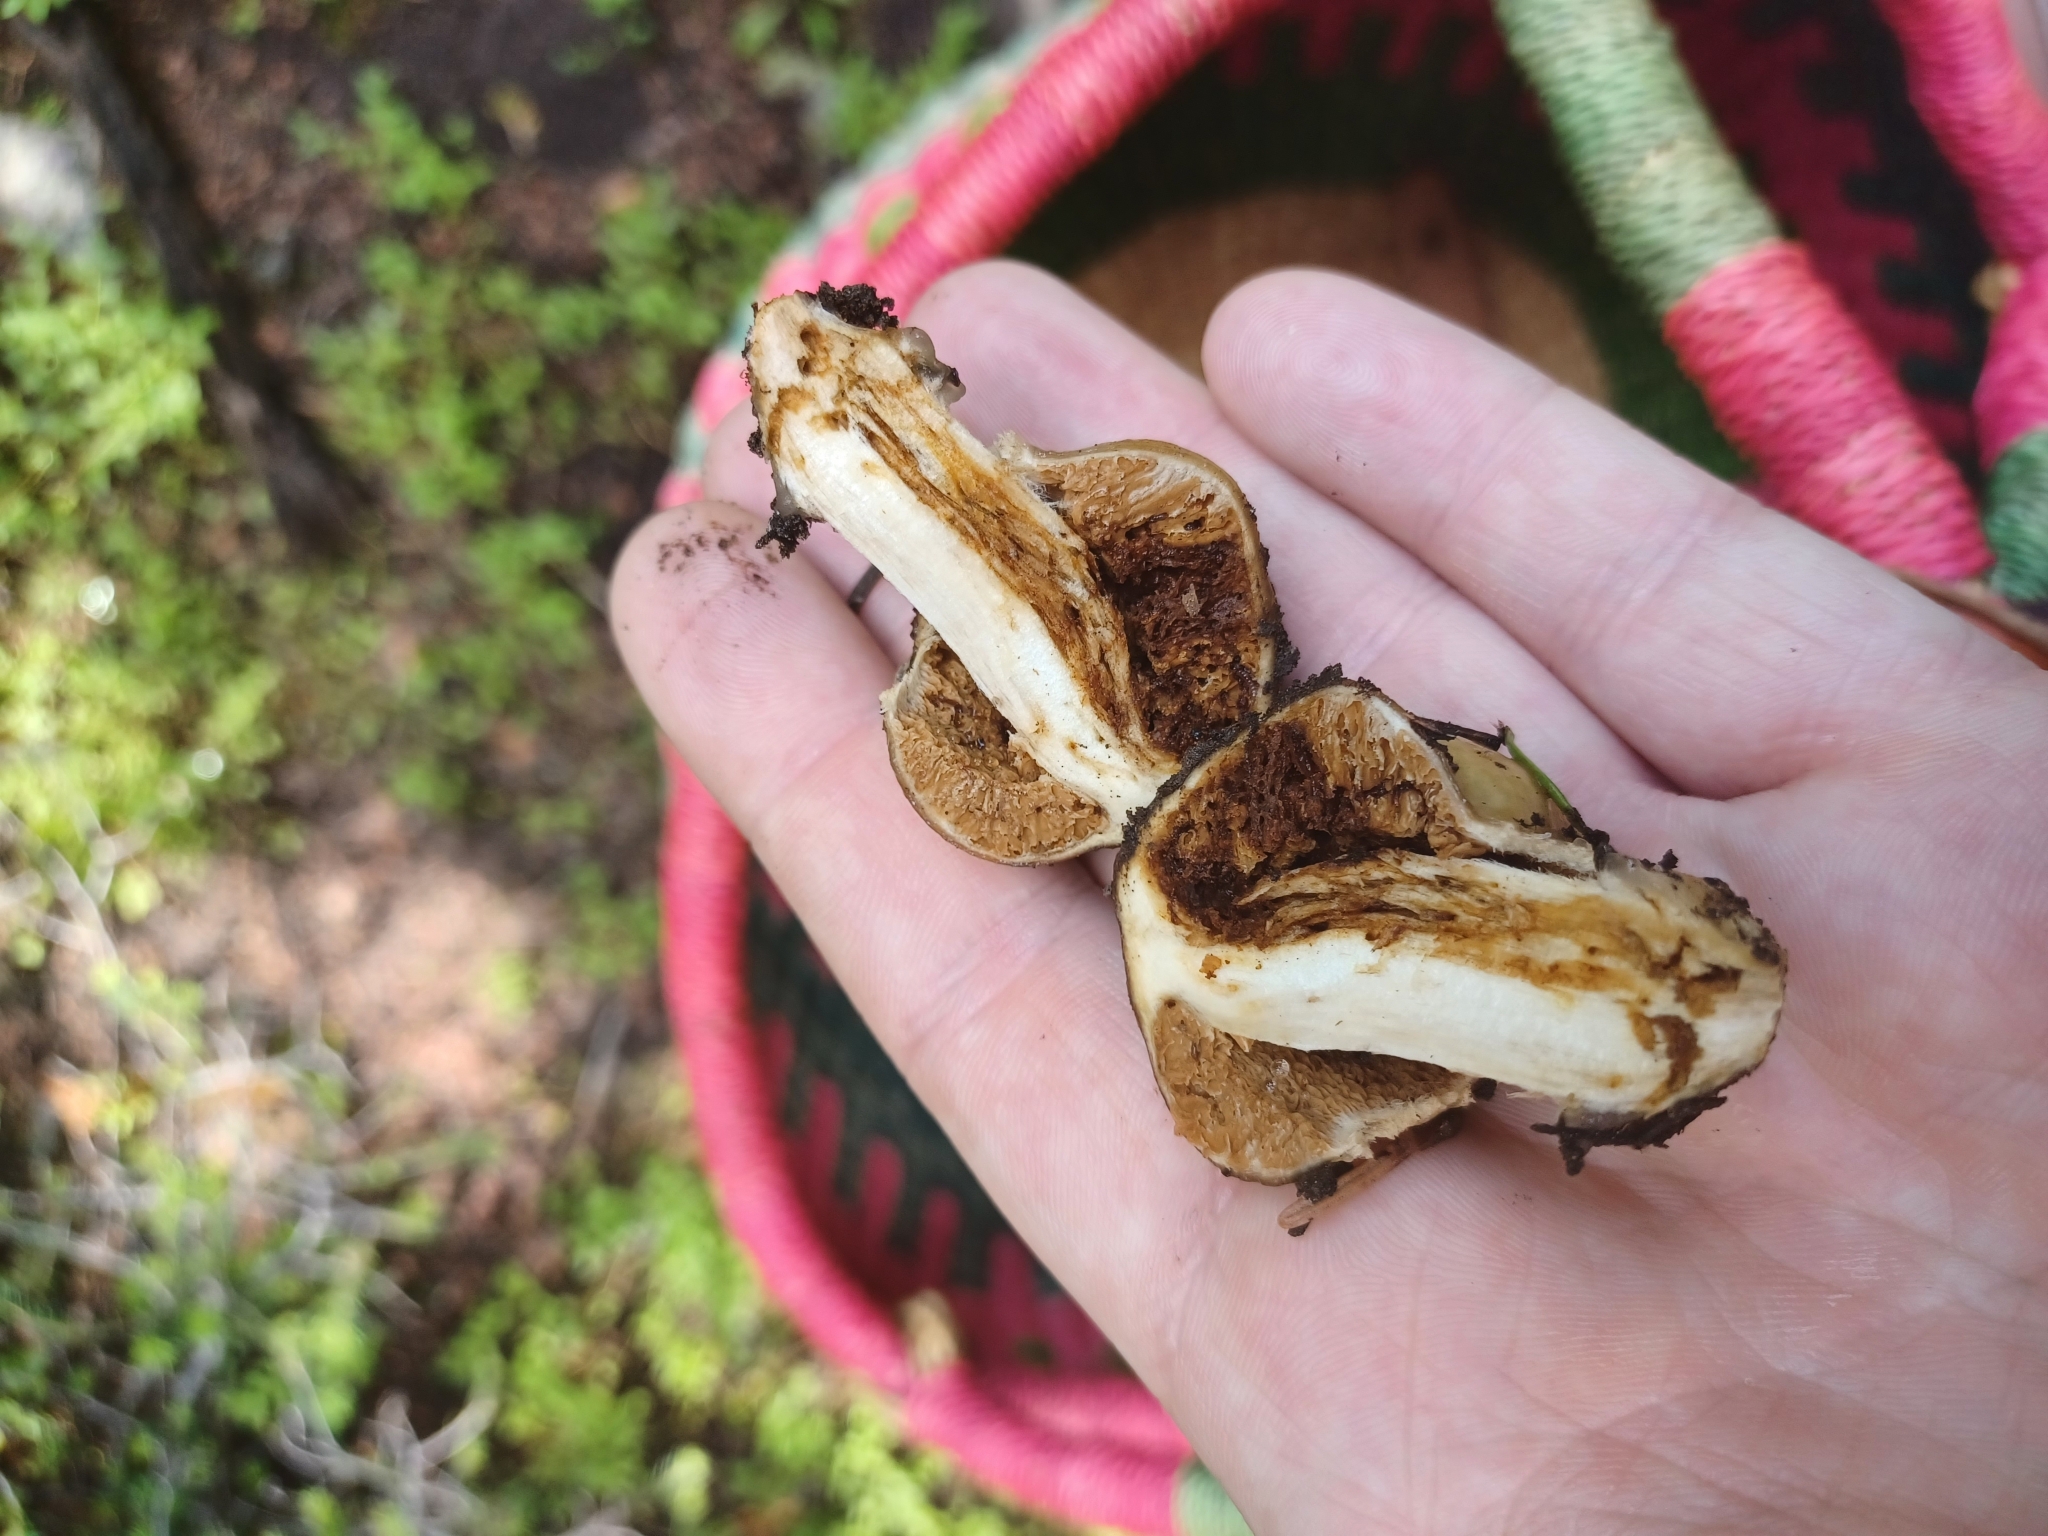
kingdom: Fungi
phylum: Basidiomycota
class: Agaricomycetes
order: Agaricales
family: Cortinariaceae
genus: Cortinarius
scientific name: Cortinarius pinguis
